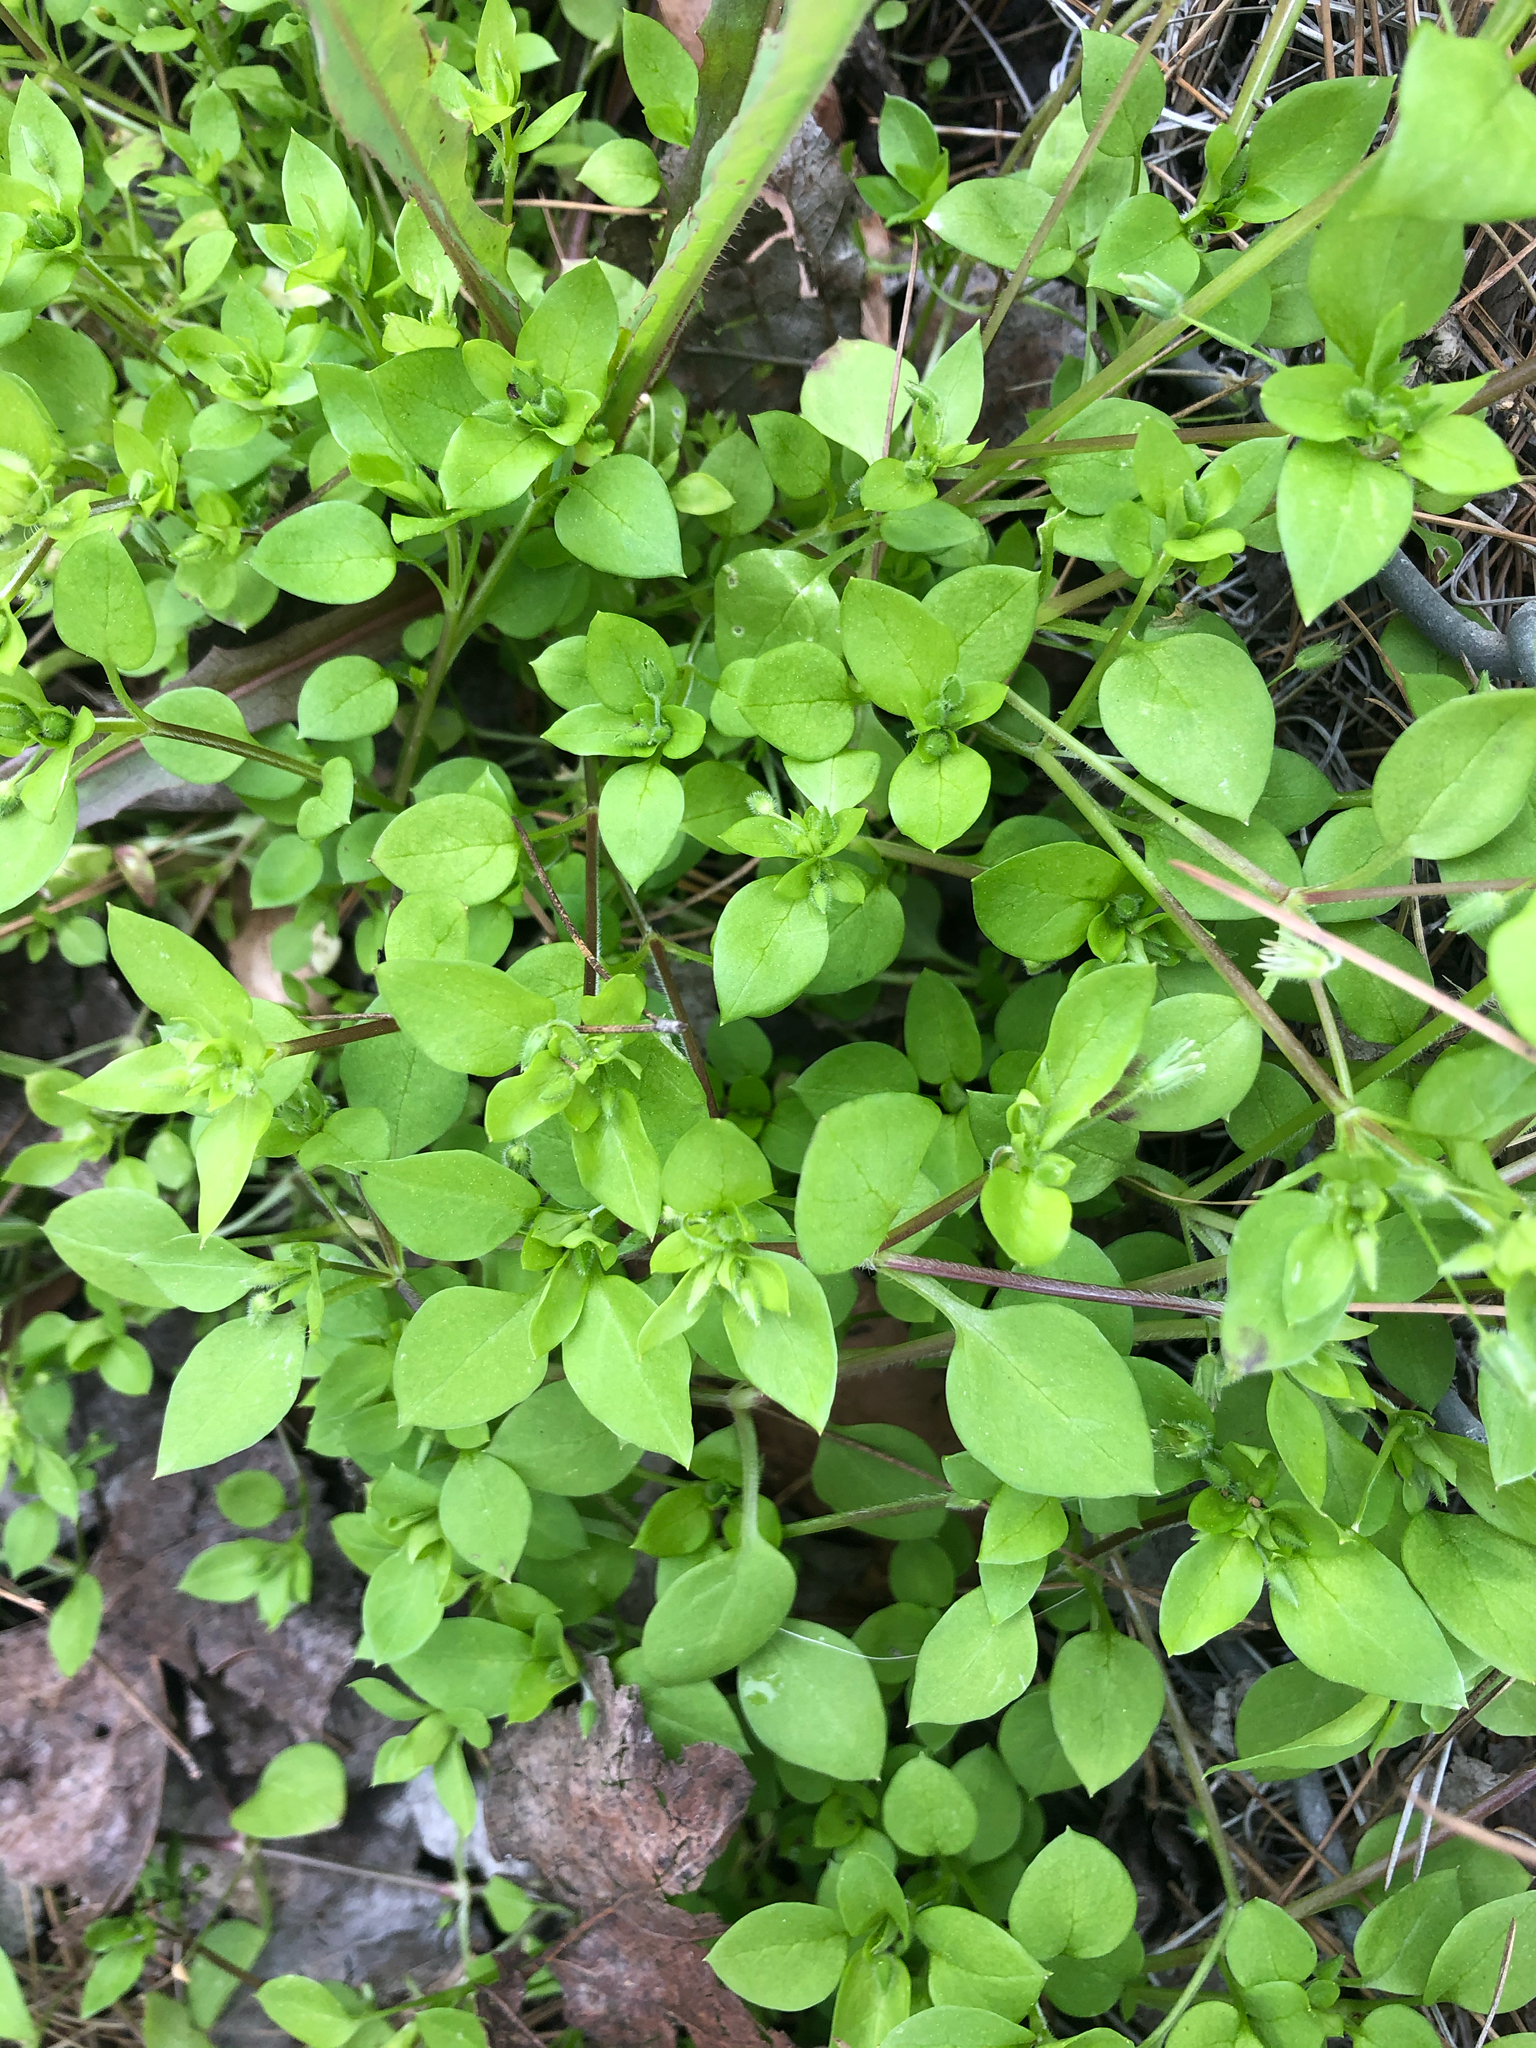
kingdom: Plantae
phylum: Tracheophyta
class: Magnoliopsida
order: Caryophyllales
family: Caryophyllaceae
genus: Stellaria
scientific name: Stellaria media
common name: Common chickweed
